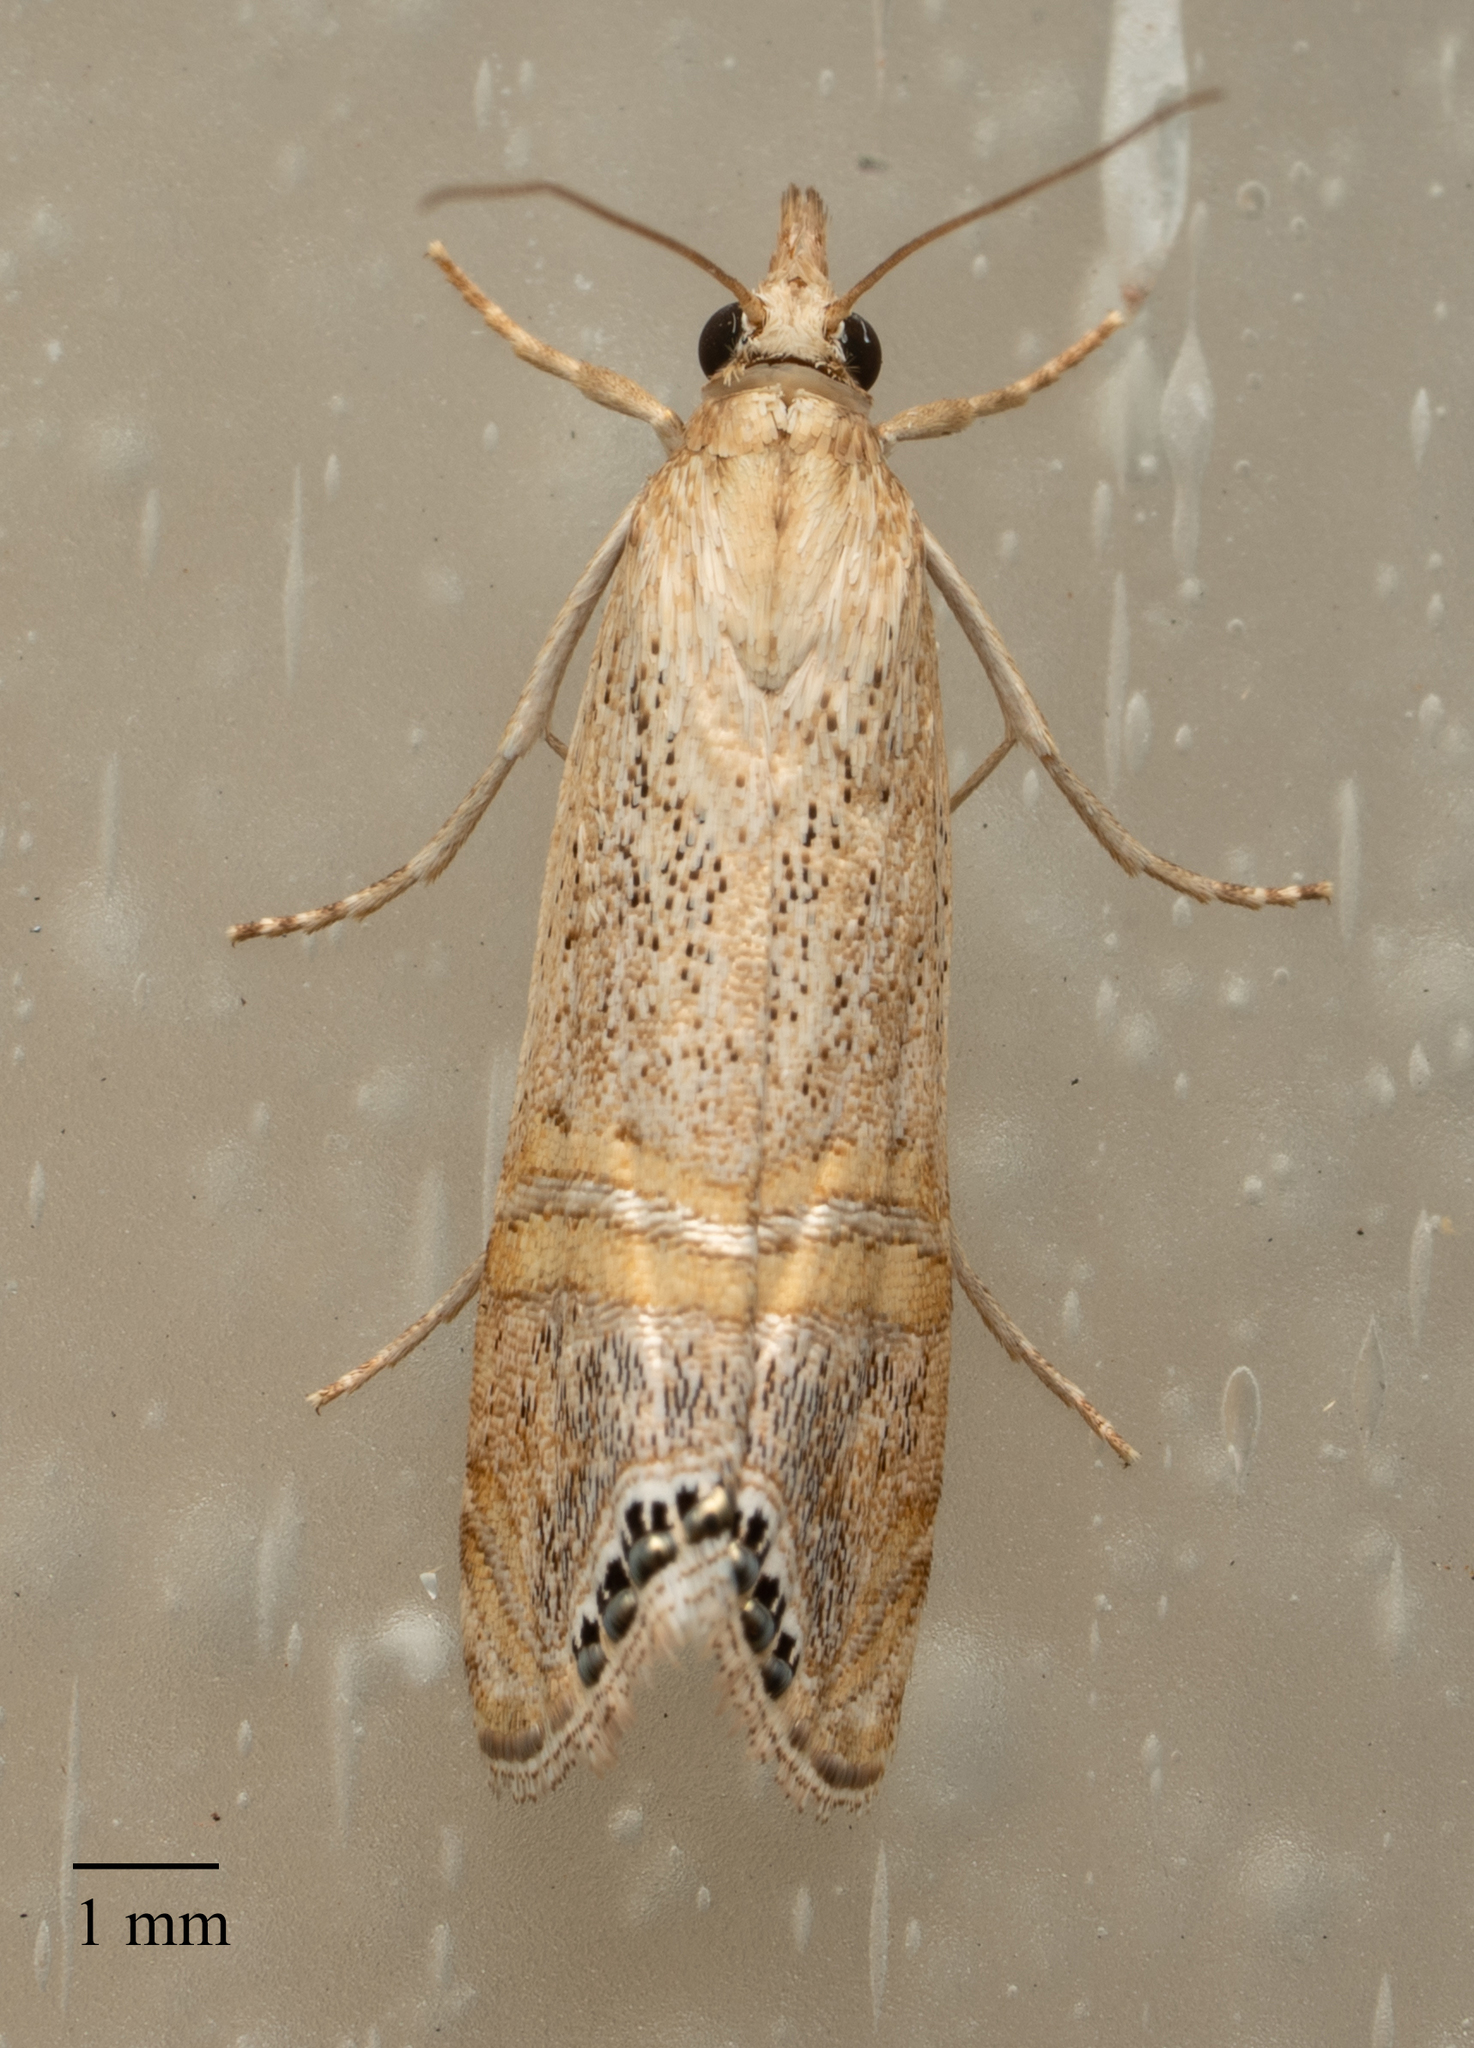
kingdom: Animalia
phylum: Arthropoda
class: Insecta
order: Lepidoptera
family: Crambidae
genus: Euchromius
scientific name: Euchromius ocellea
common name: Necklace veneer moth
